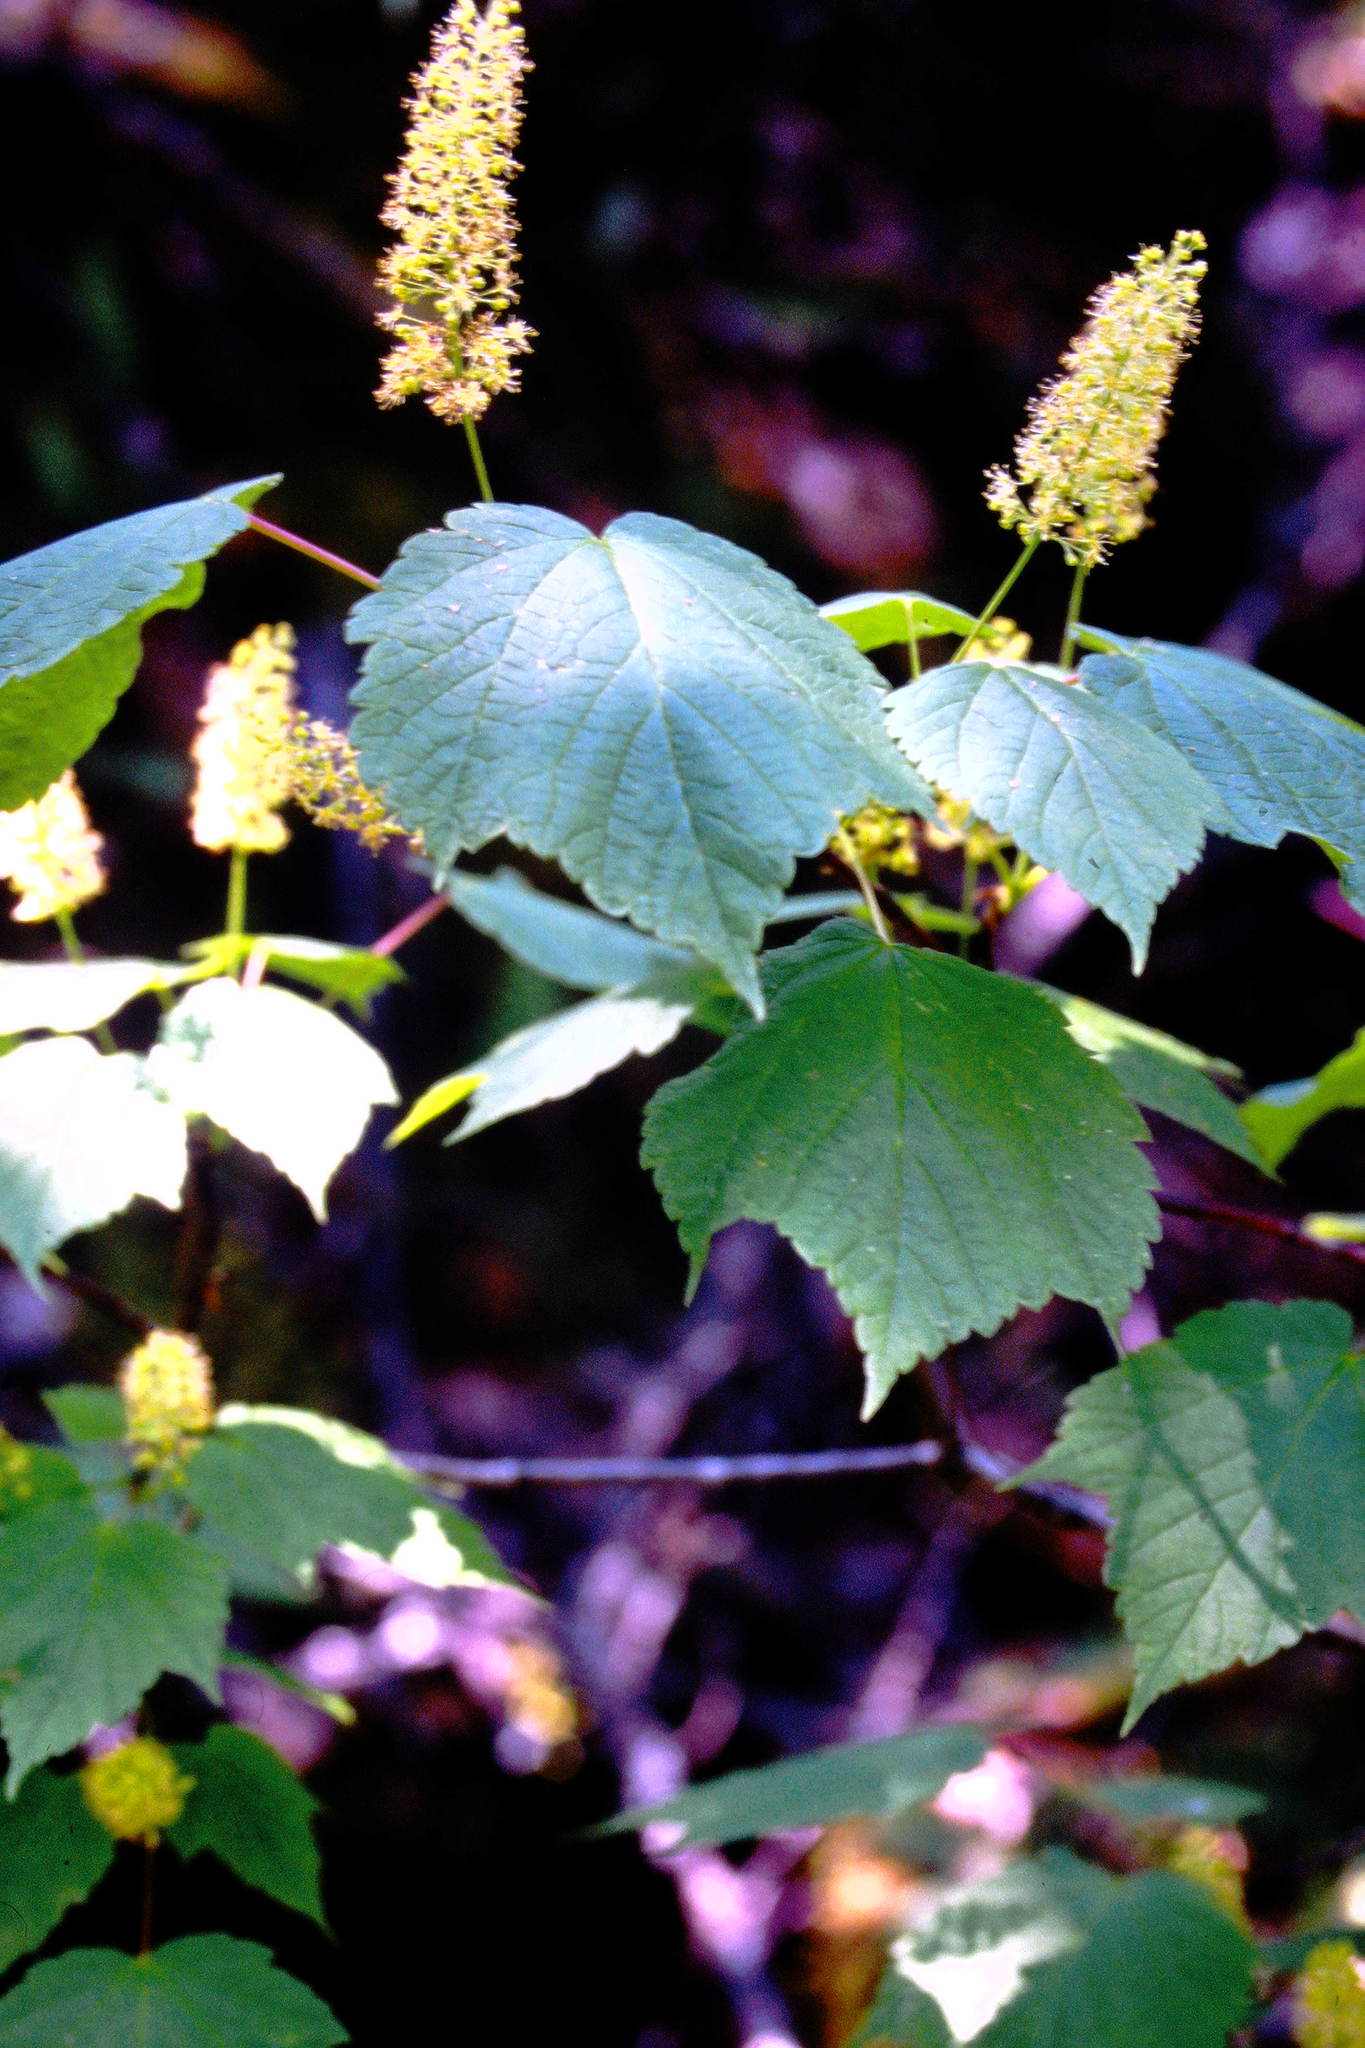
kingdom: Plantae
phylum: Tracheophyta
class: Magnoliopsida
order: Sapindales
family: Sapindaceae
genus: Acer
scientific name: Acer spicatum
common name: Mountain maple
